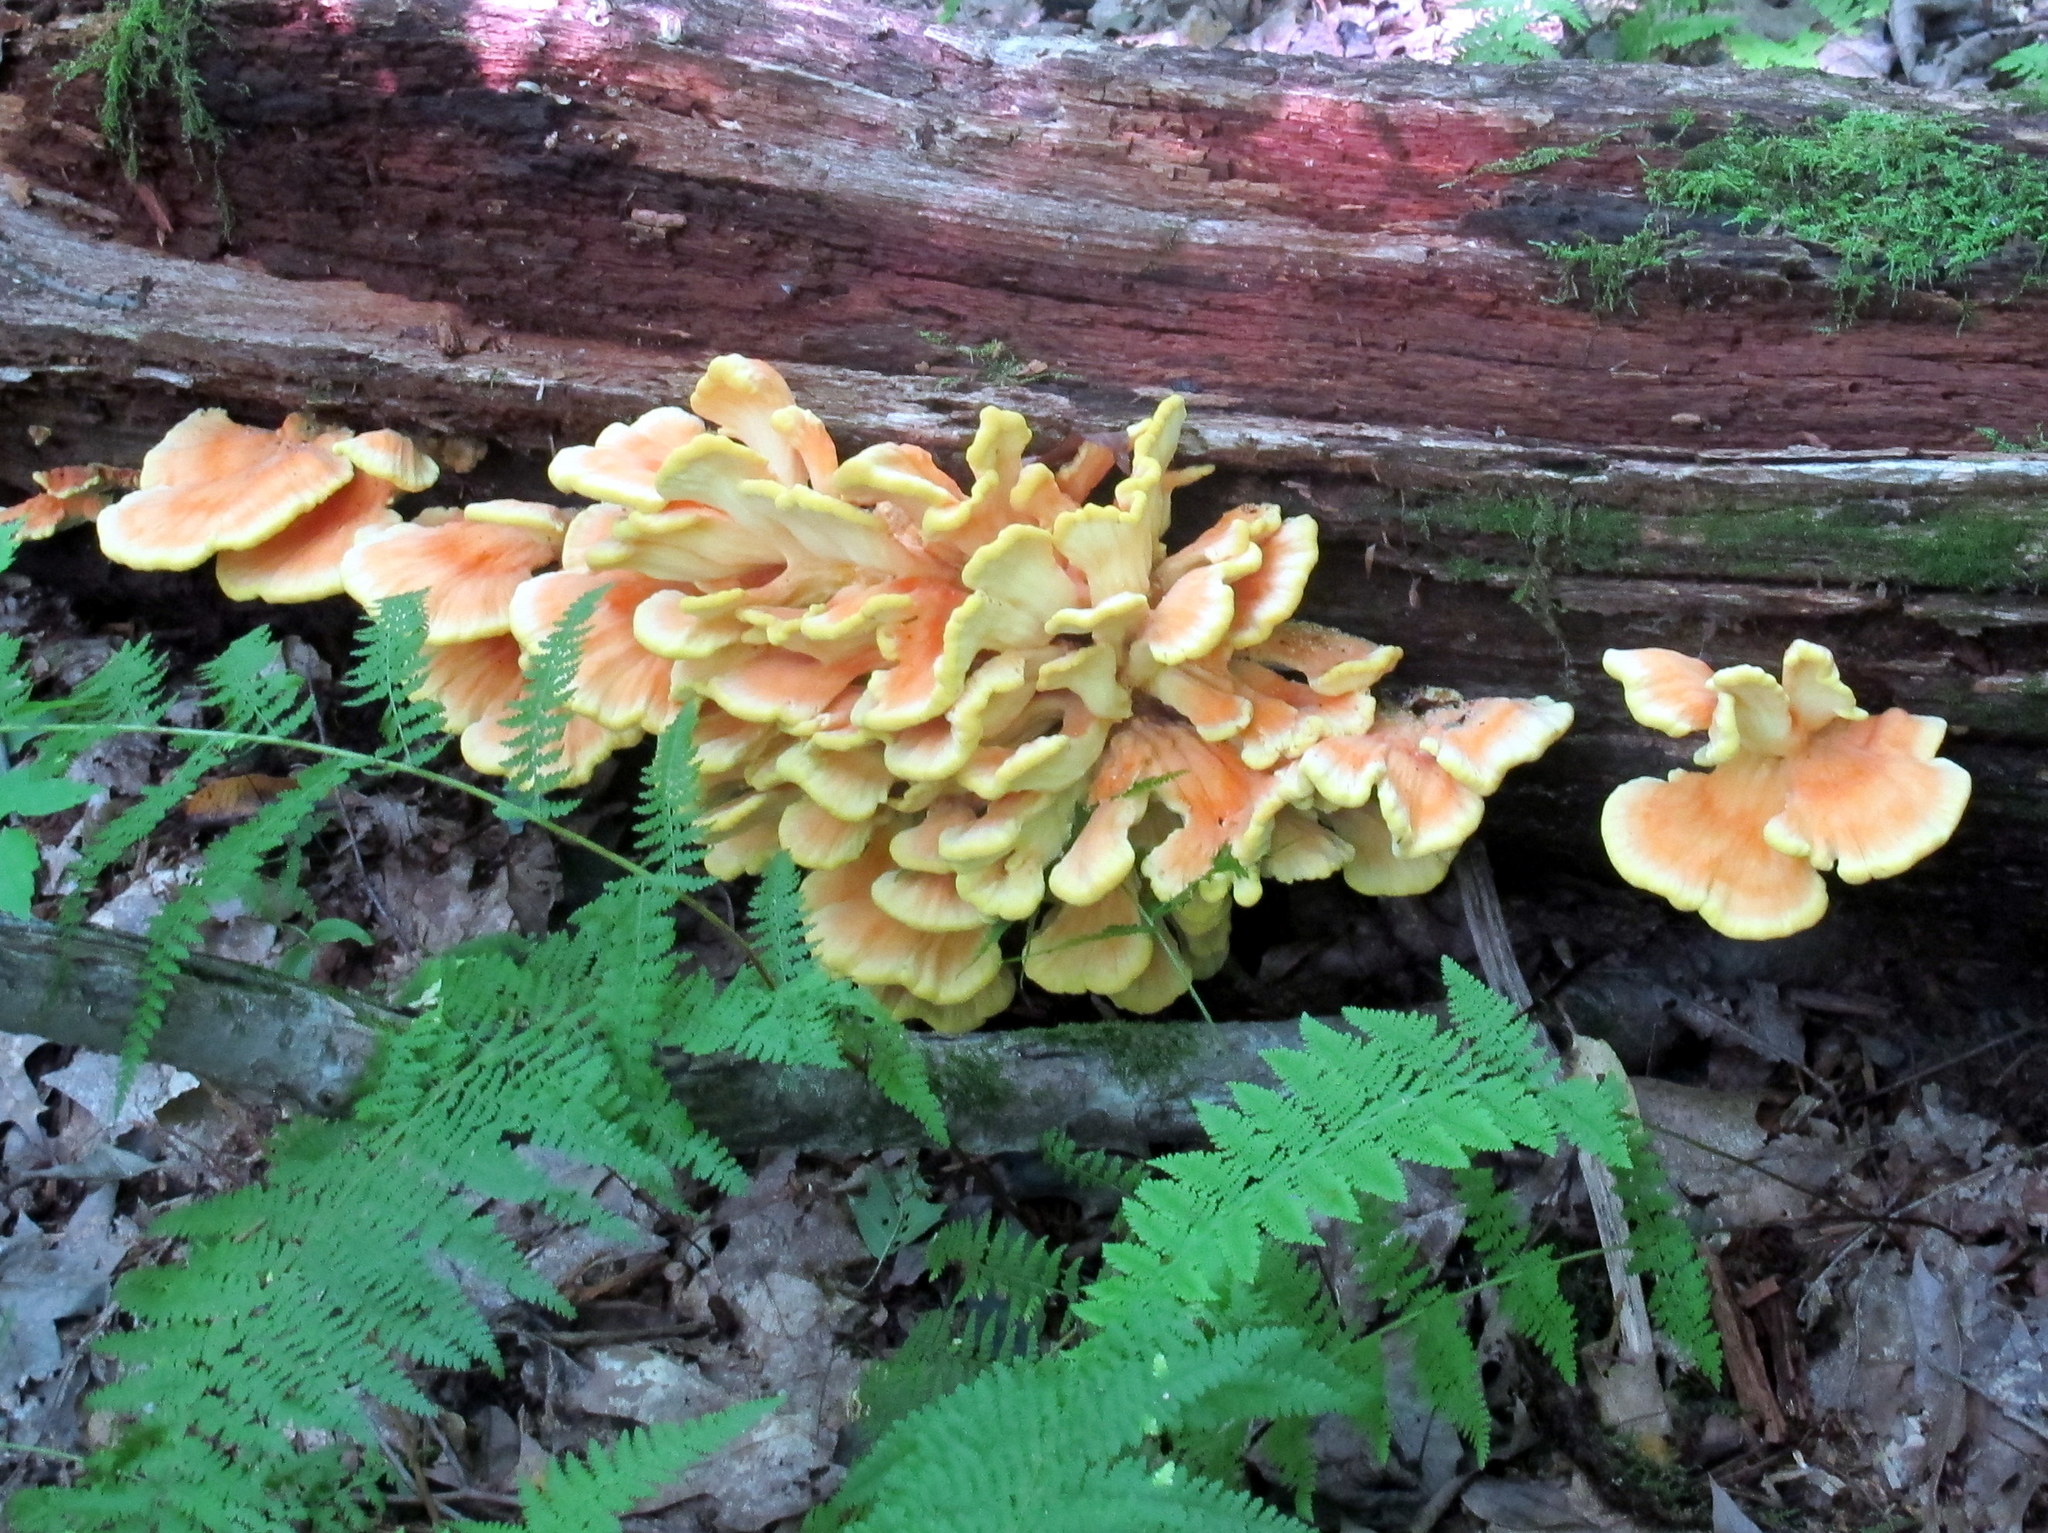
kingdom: Fungi
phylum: Basidiomycota
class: Agaricomycetes
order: Polyporales
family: Laetiporaceae
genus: Laetiporus
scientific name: Laetiporus sulphureus
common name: Chicken of the woods
